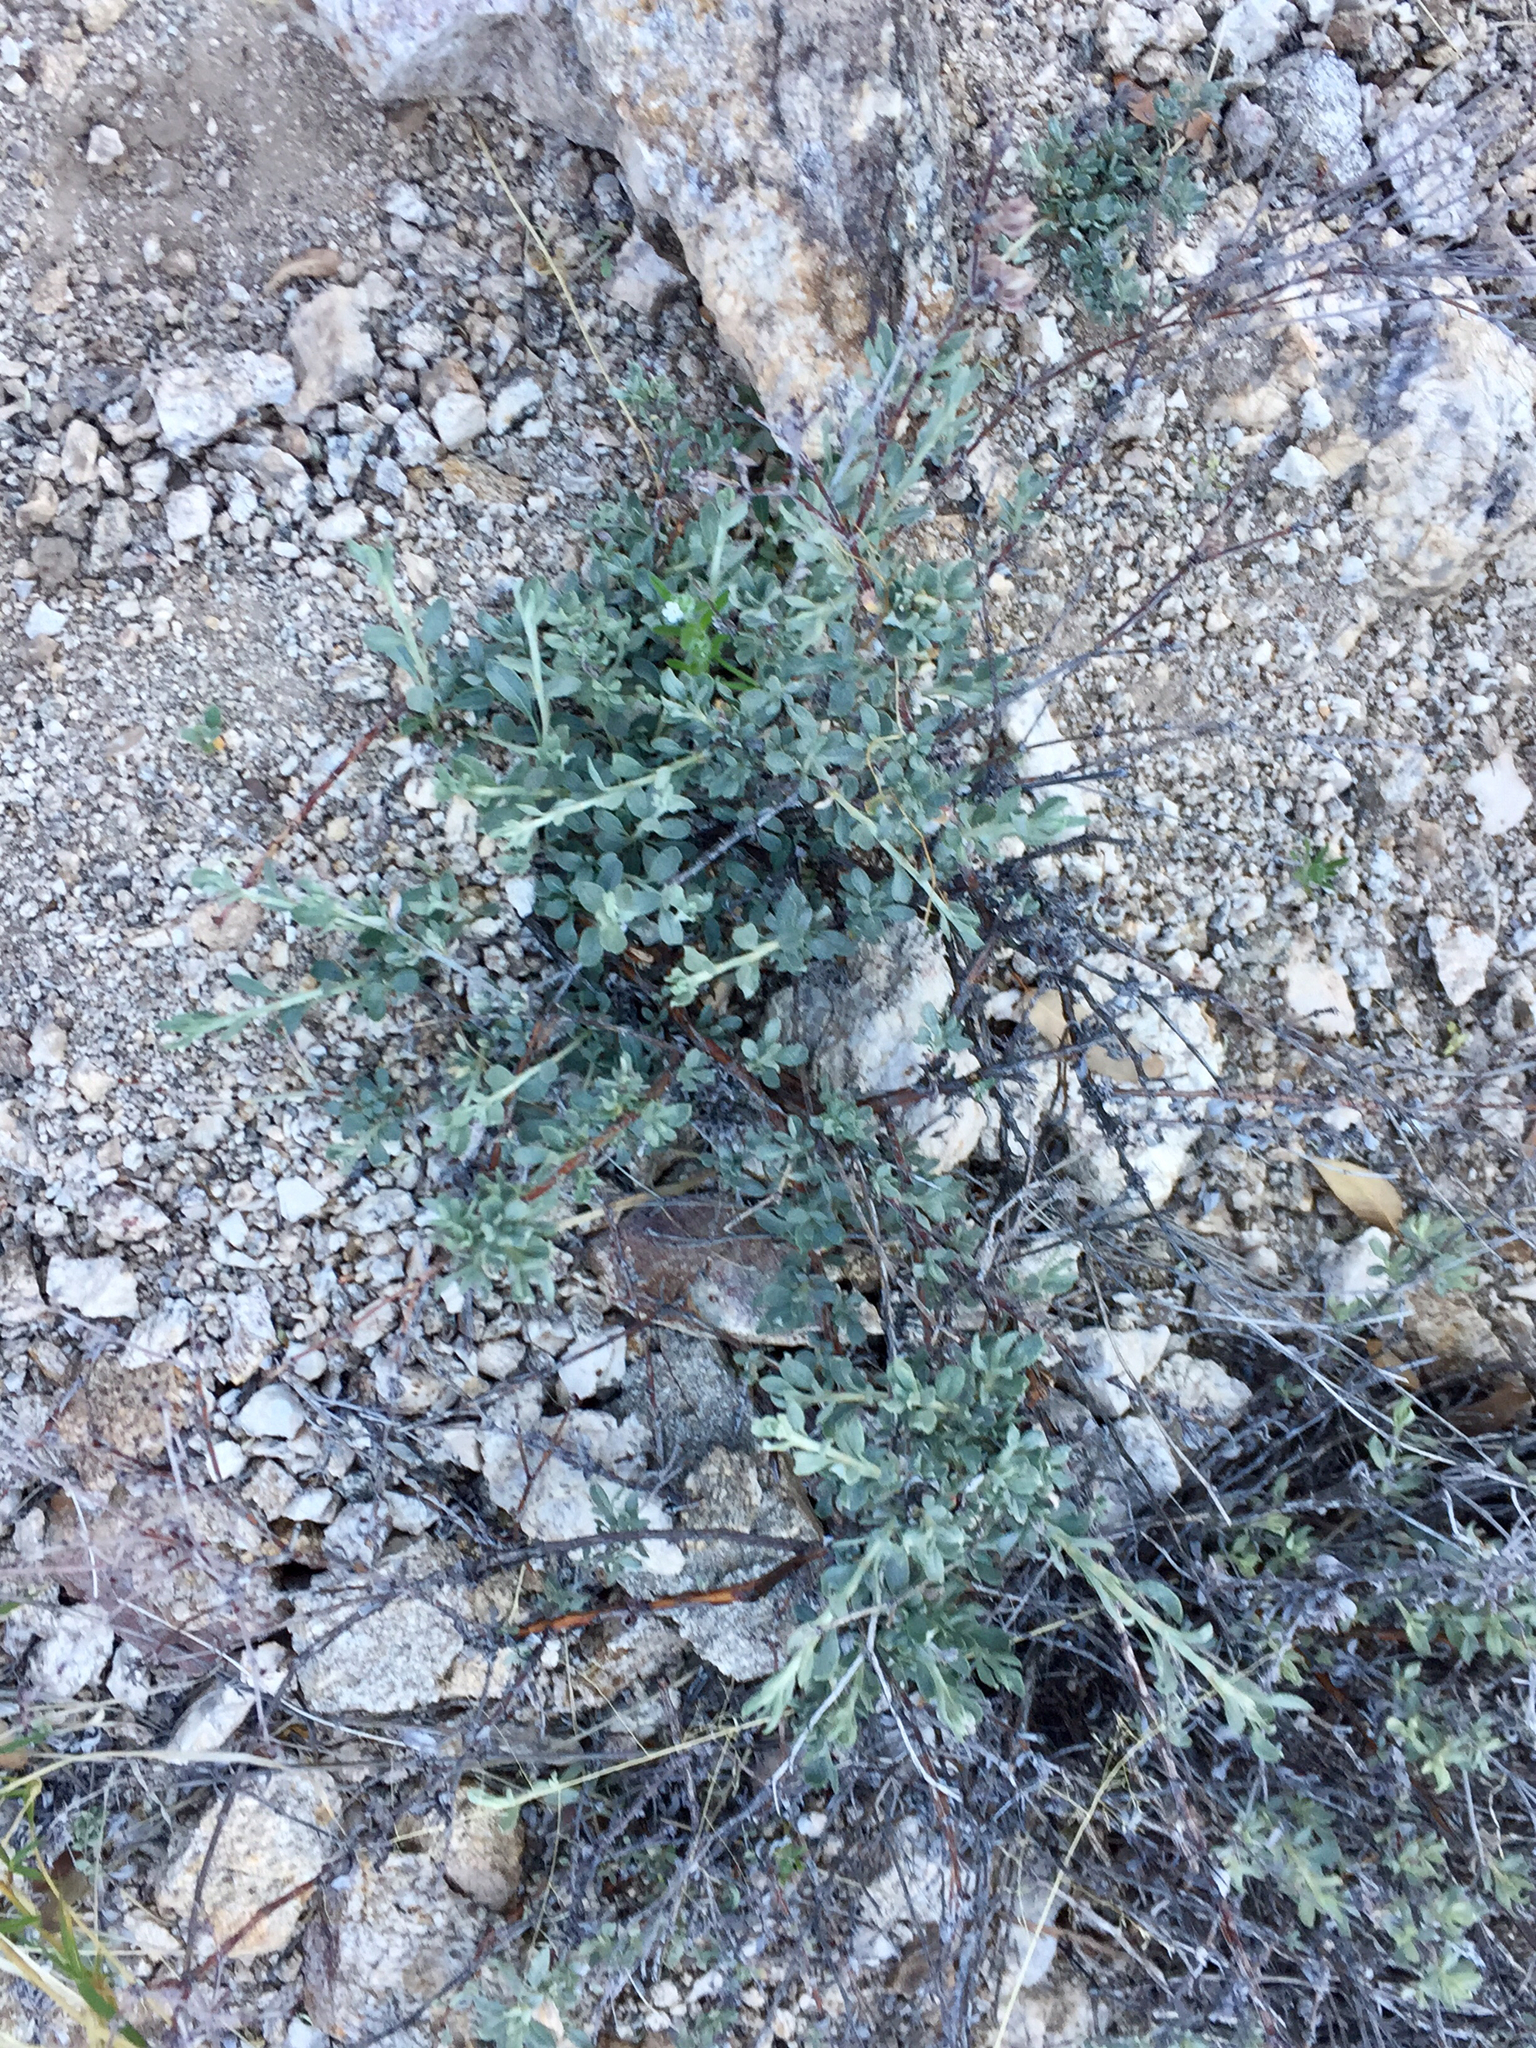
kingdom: Plantae
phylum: Tracheophyta
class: Magnoliopsida
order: Caryophyllales
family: Polygonaceae
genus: Eriogonum
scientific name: Eriogonum wrightii
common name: Bastard-sage
